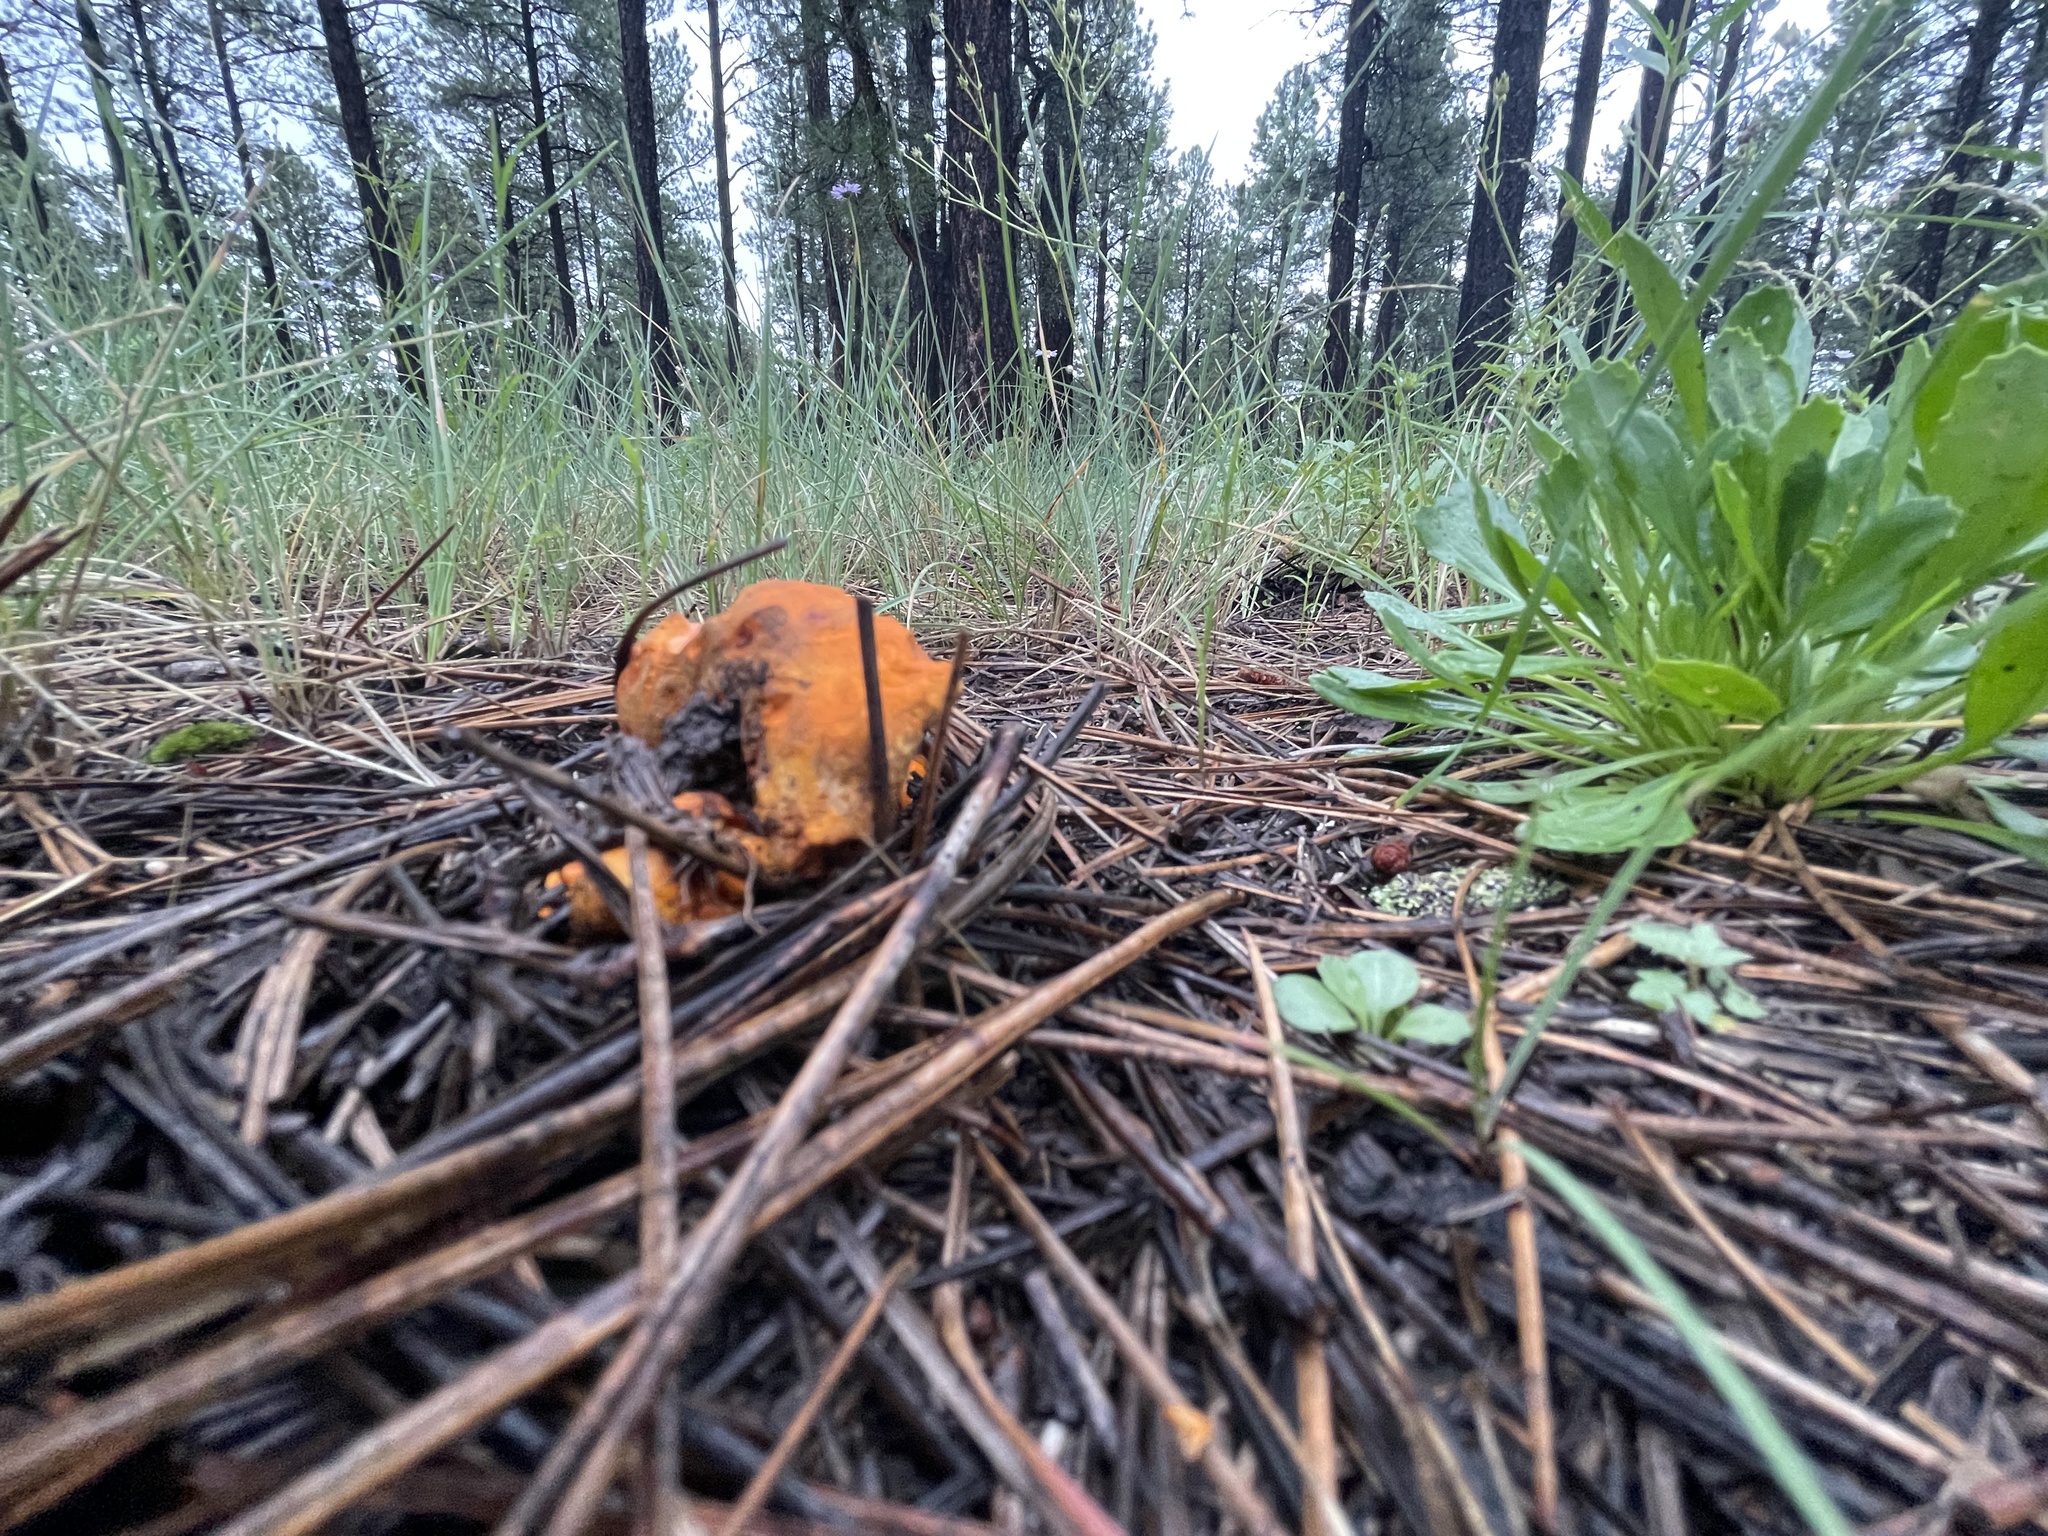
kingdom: Fungi
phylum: Ascomycota
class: Sordariomycetes
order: Hypocreales
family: Hypocreaceae
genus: Hypomyces
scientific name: Hypomyces lactifluorum
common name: Lobster mushroom
